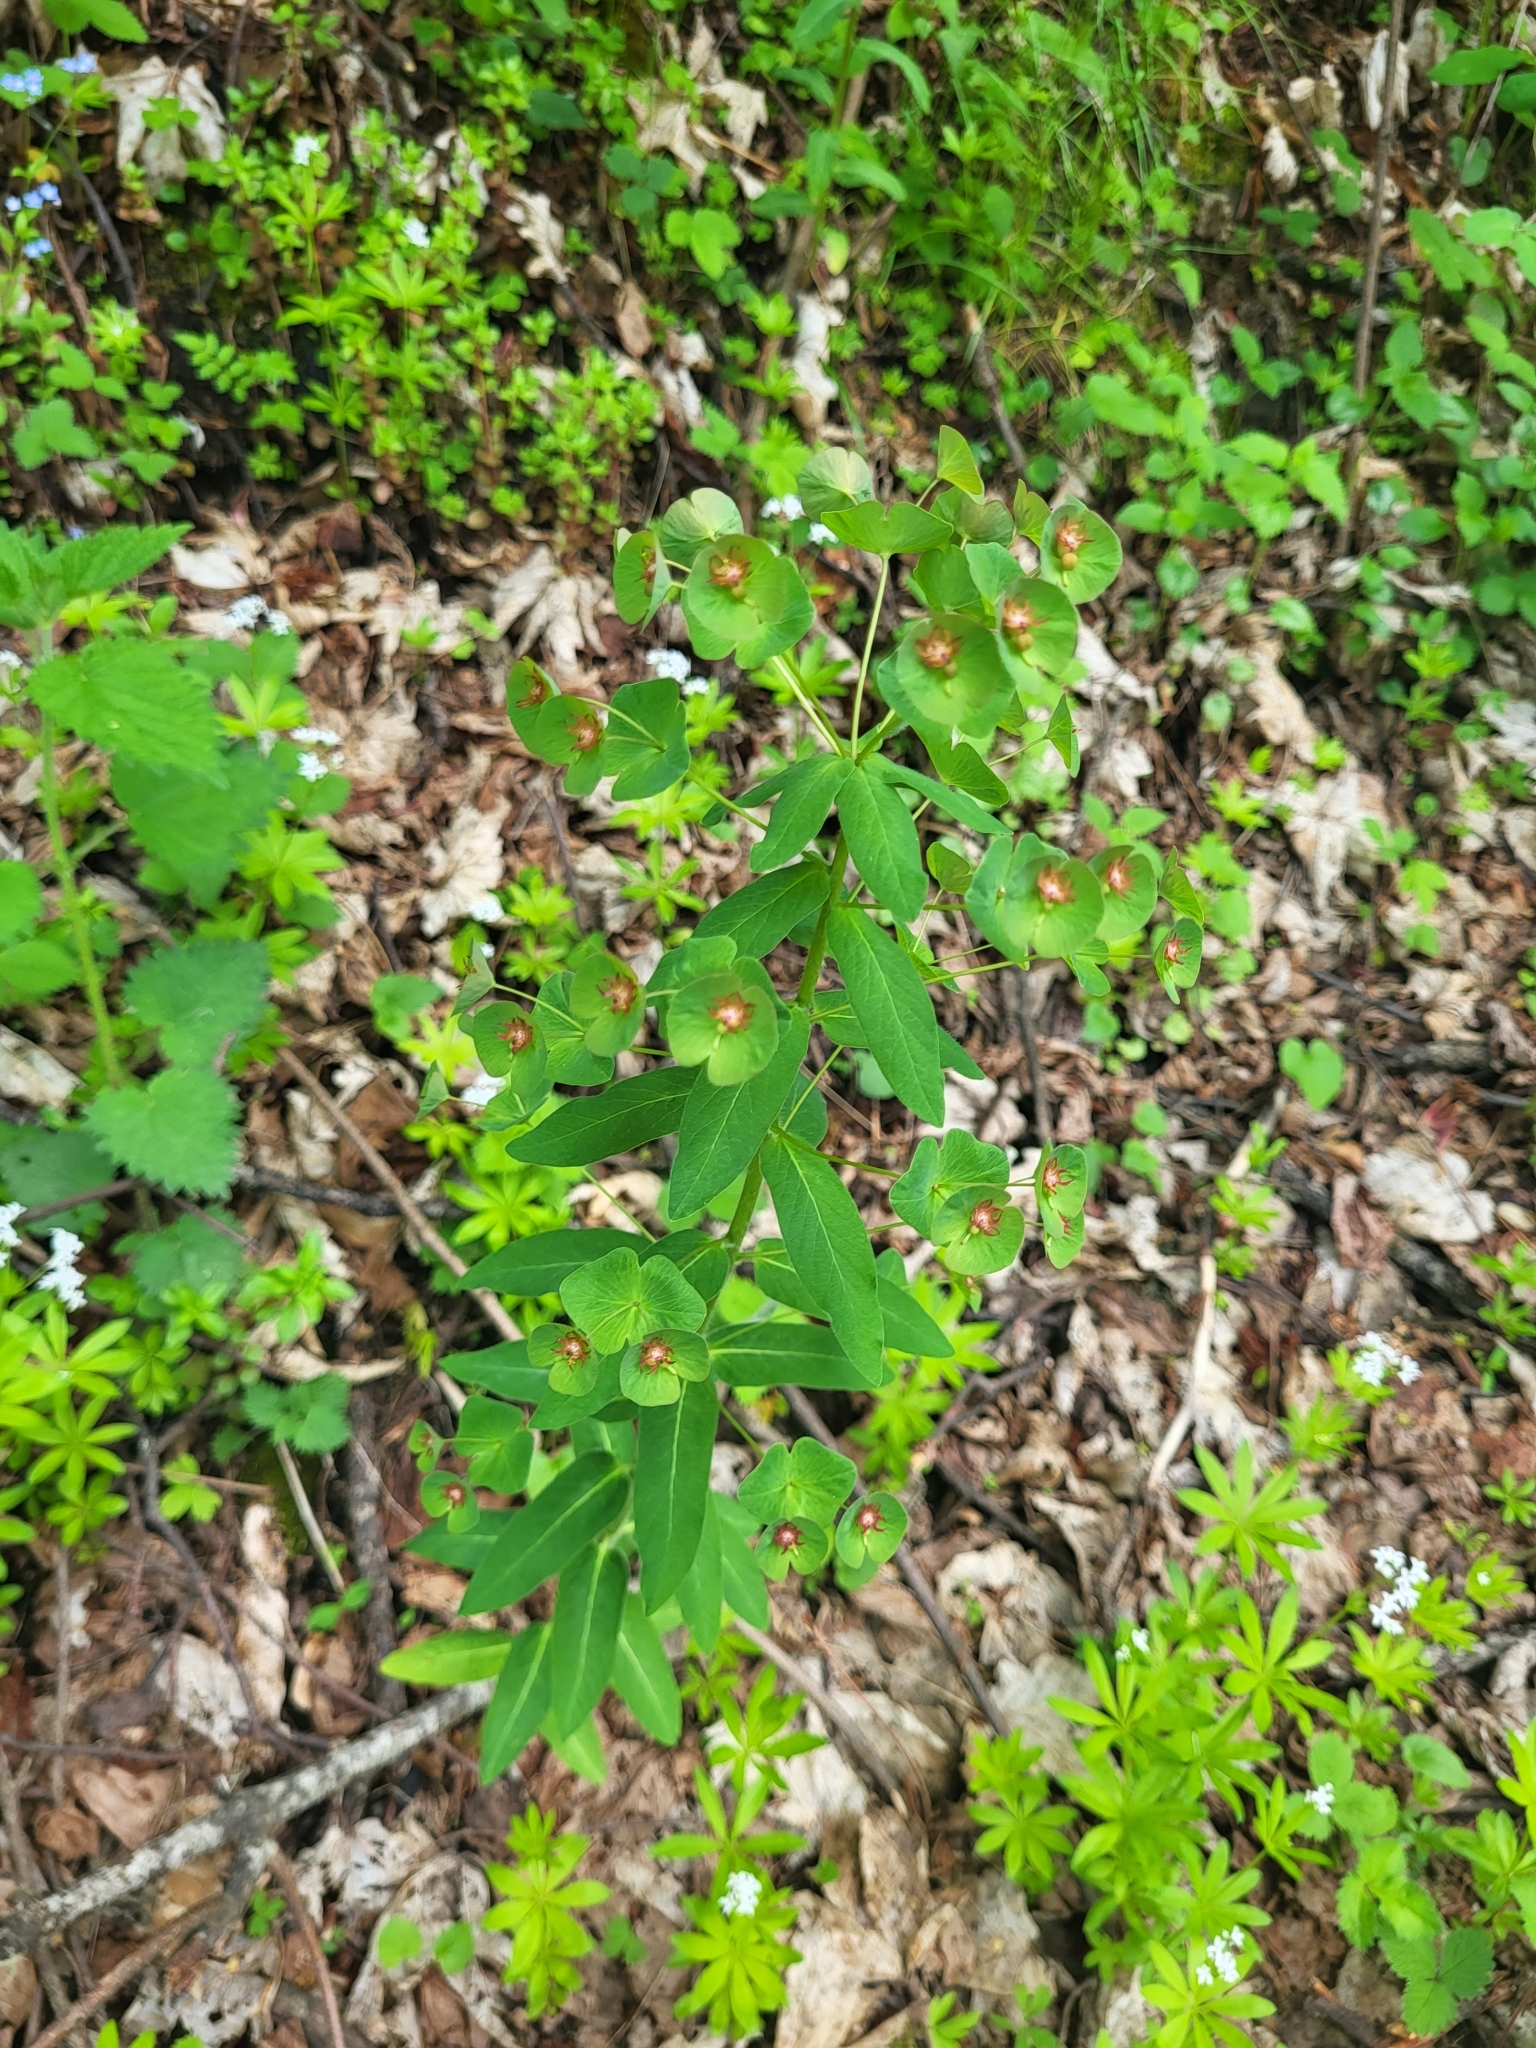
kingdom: Plantae
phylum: Tracheophyta
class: Magnoliopsida
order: Malpighiales
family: Euphorbiaceae
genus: Euphorbia
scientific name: Euphorbia oblongifolia
